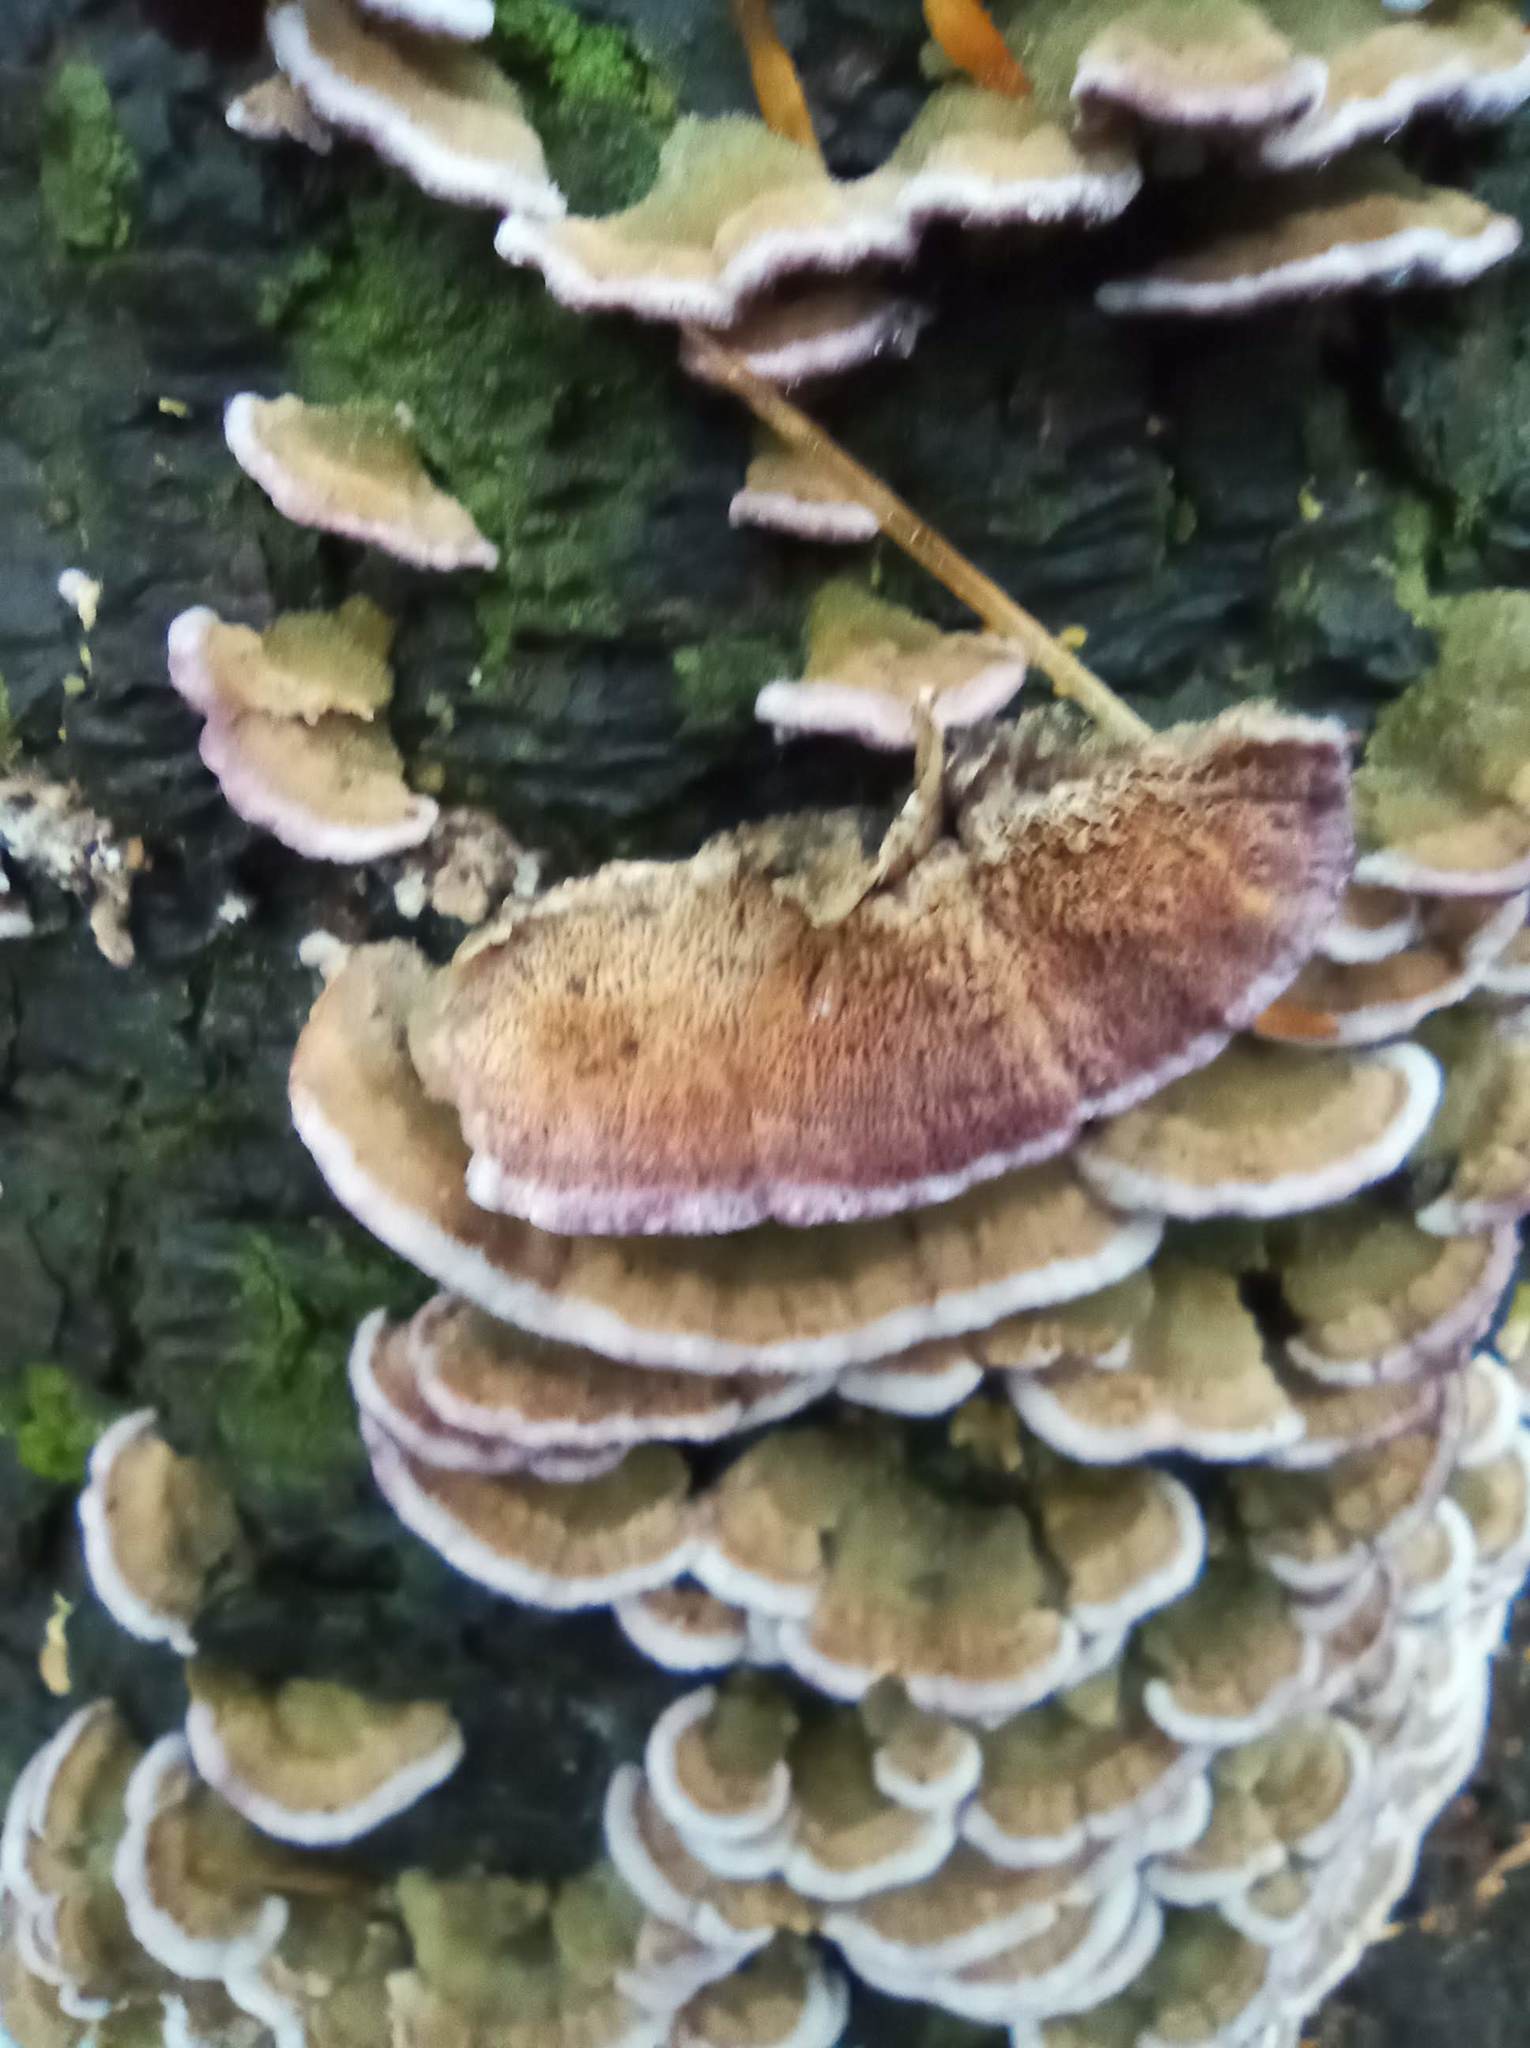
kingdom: Fungi
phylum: Basidiomycota
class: Agaricomycetes
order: Hymenochaetales
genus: Trichaptum
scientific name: Trichaptum abietinum
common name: Purplepore bracket
